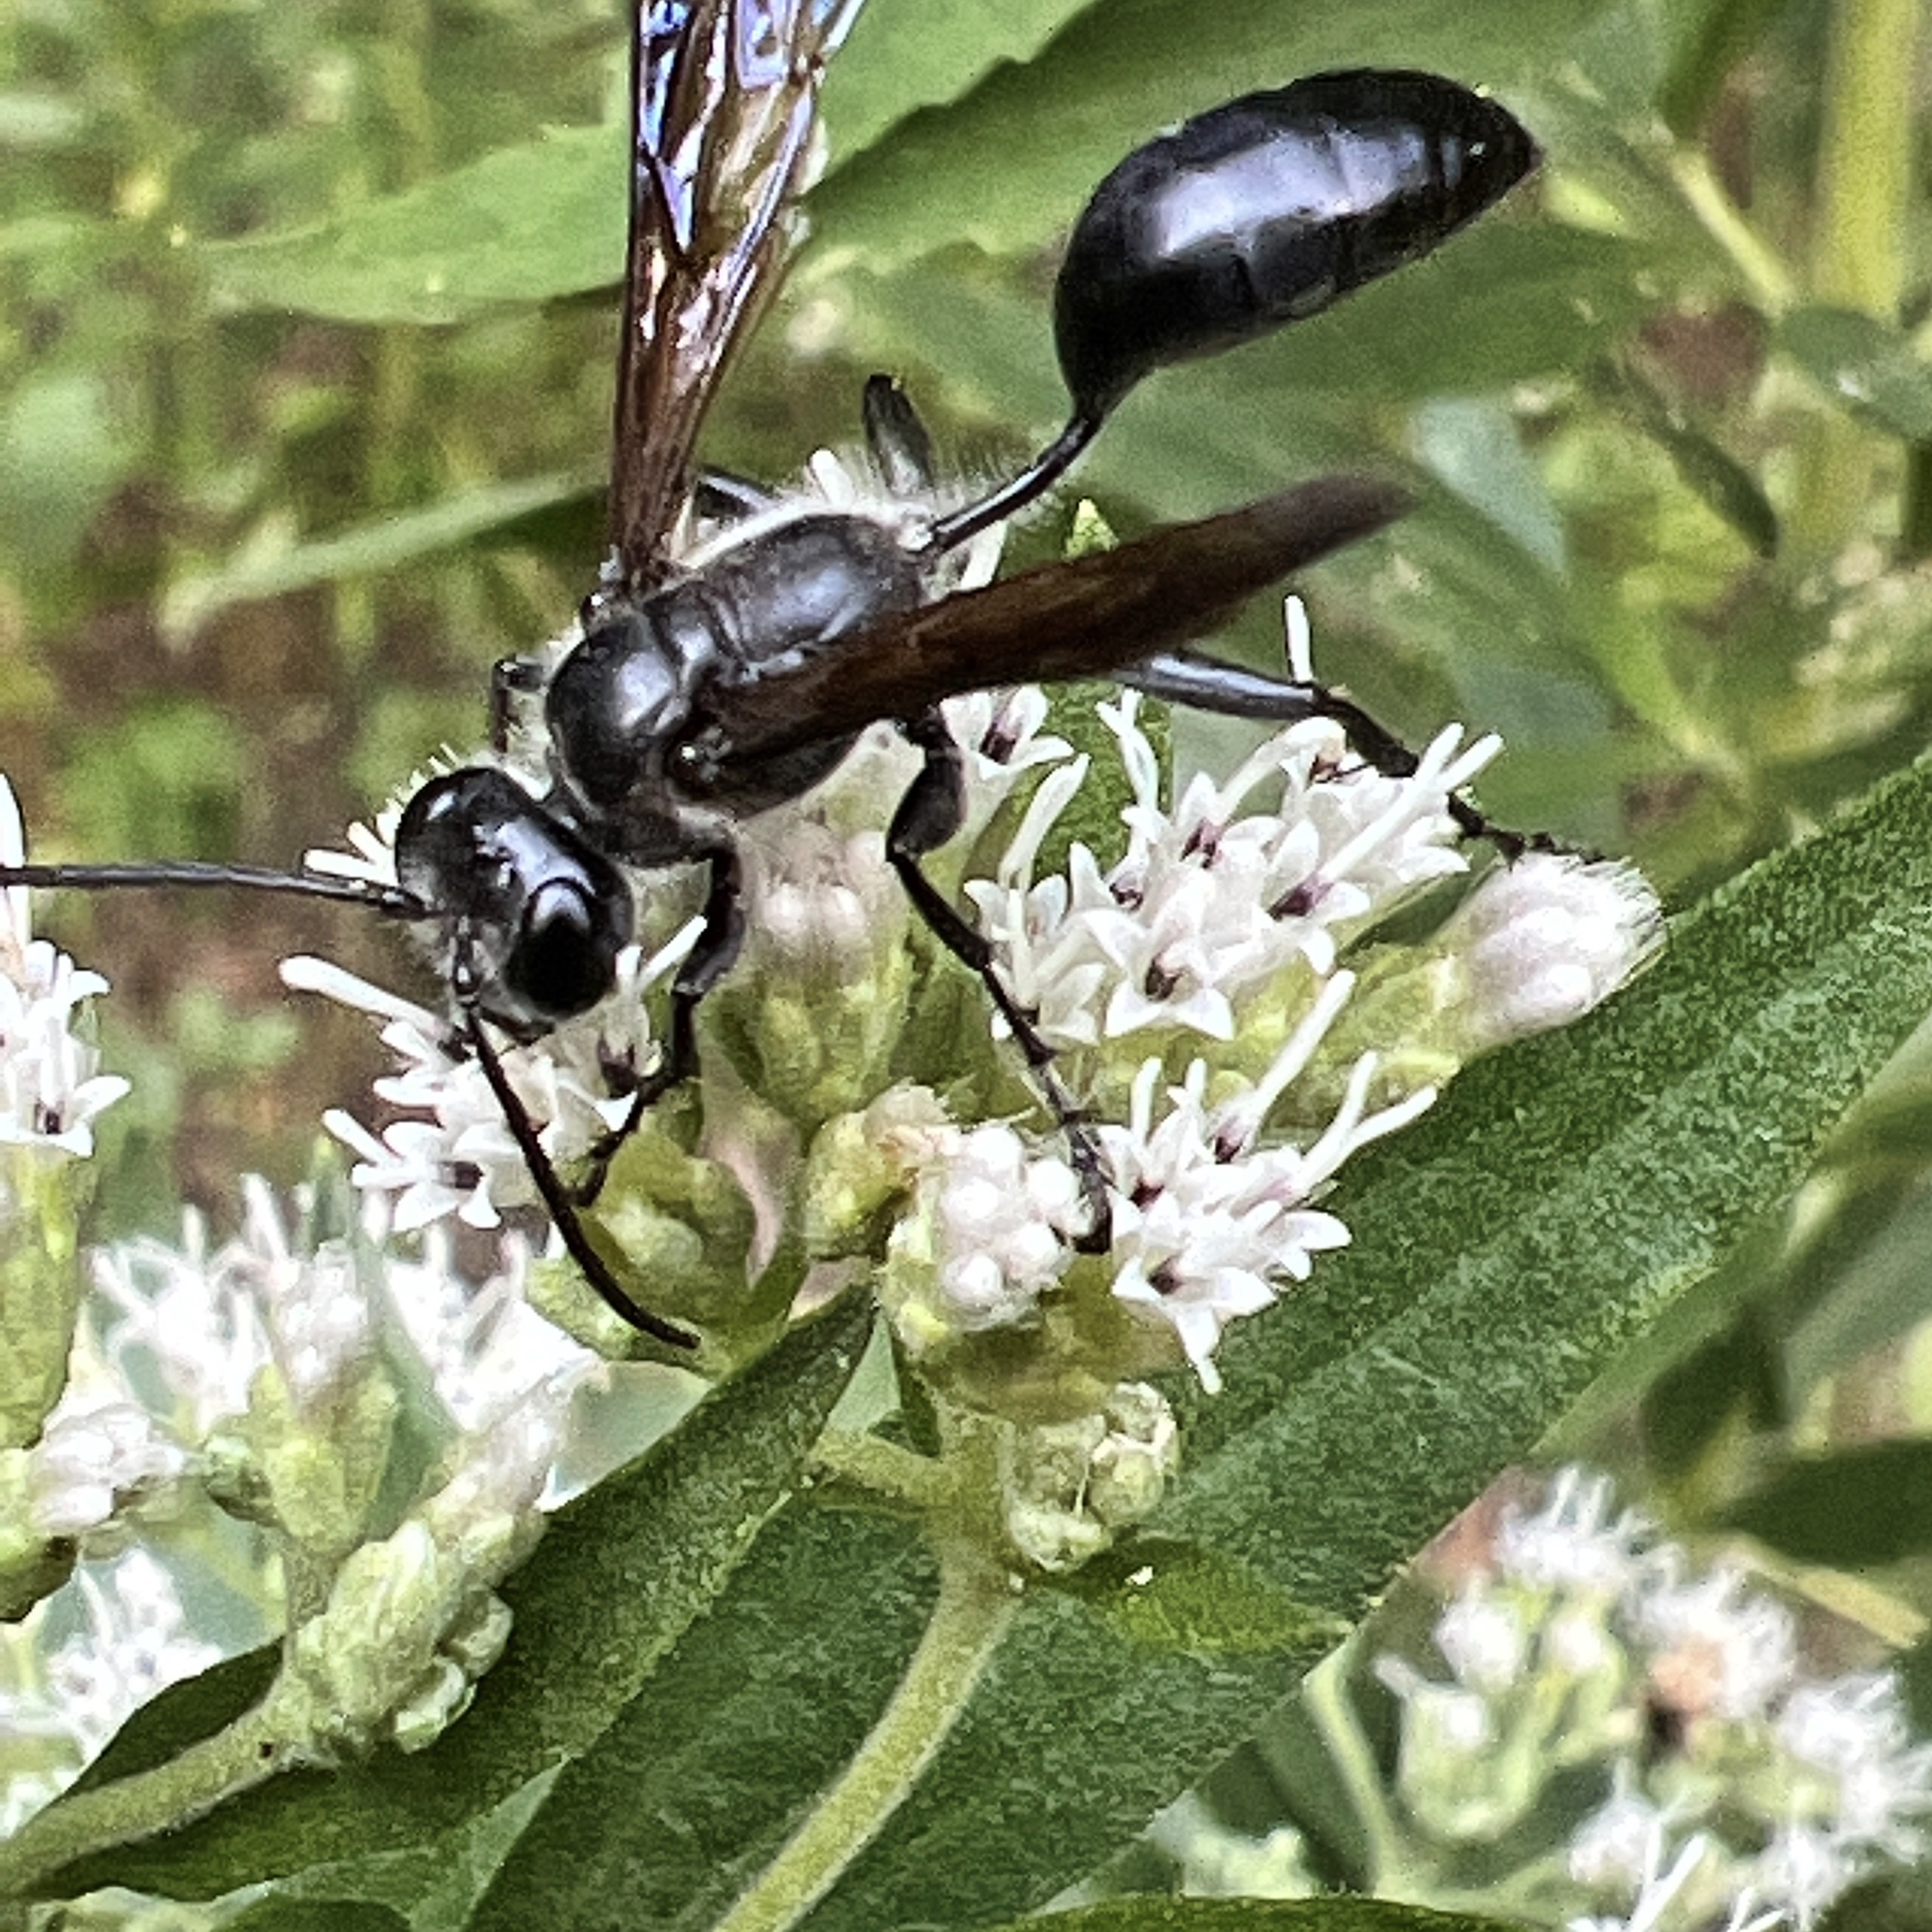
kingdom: Animalia
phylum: Arthropoda
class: Insecta
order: Hymenoptera
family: Sphecidae
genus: Isodontia
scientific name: Isodontia mexicana
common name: Mud dauber
